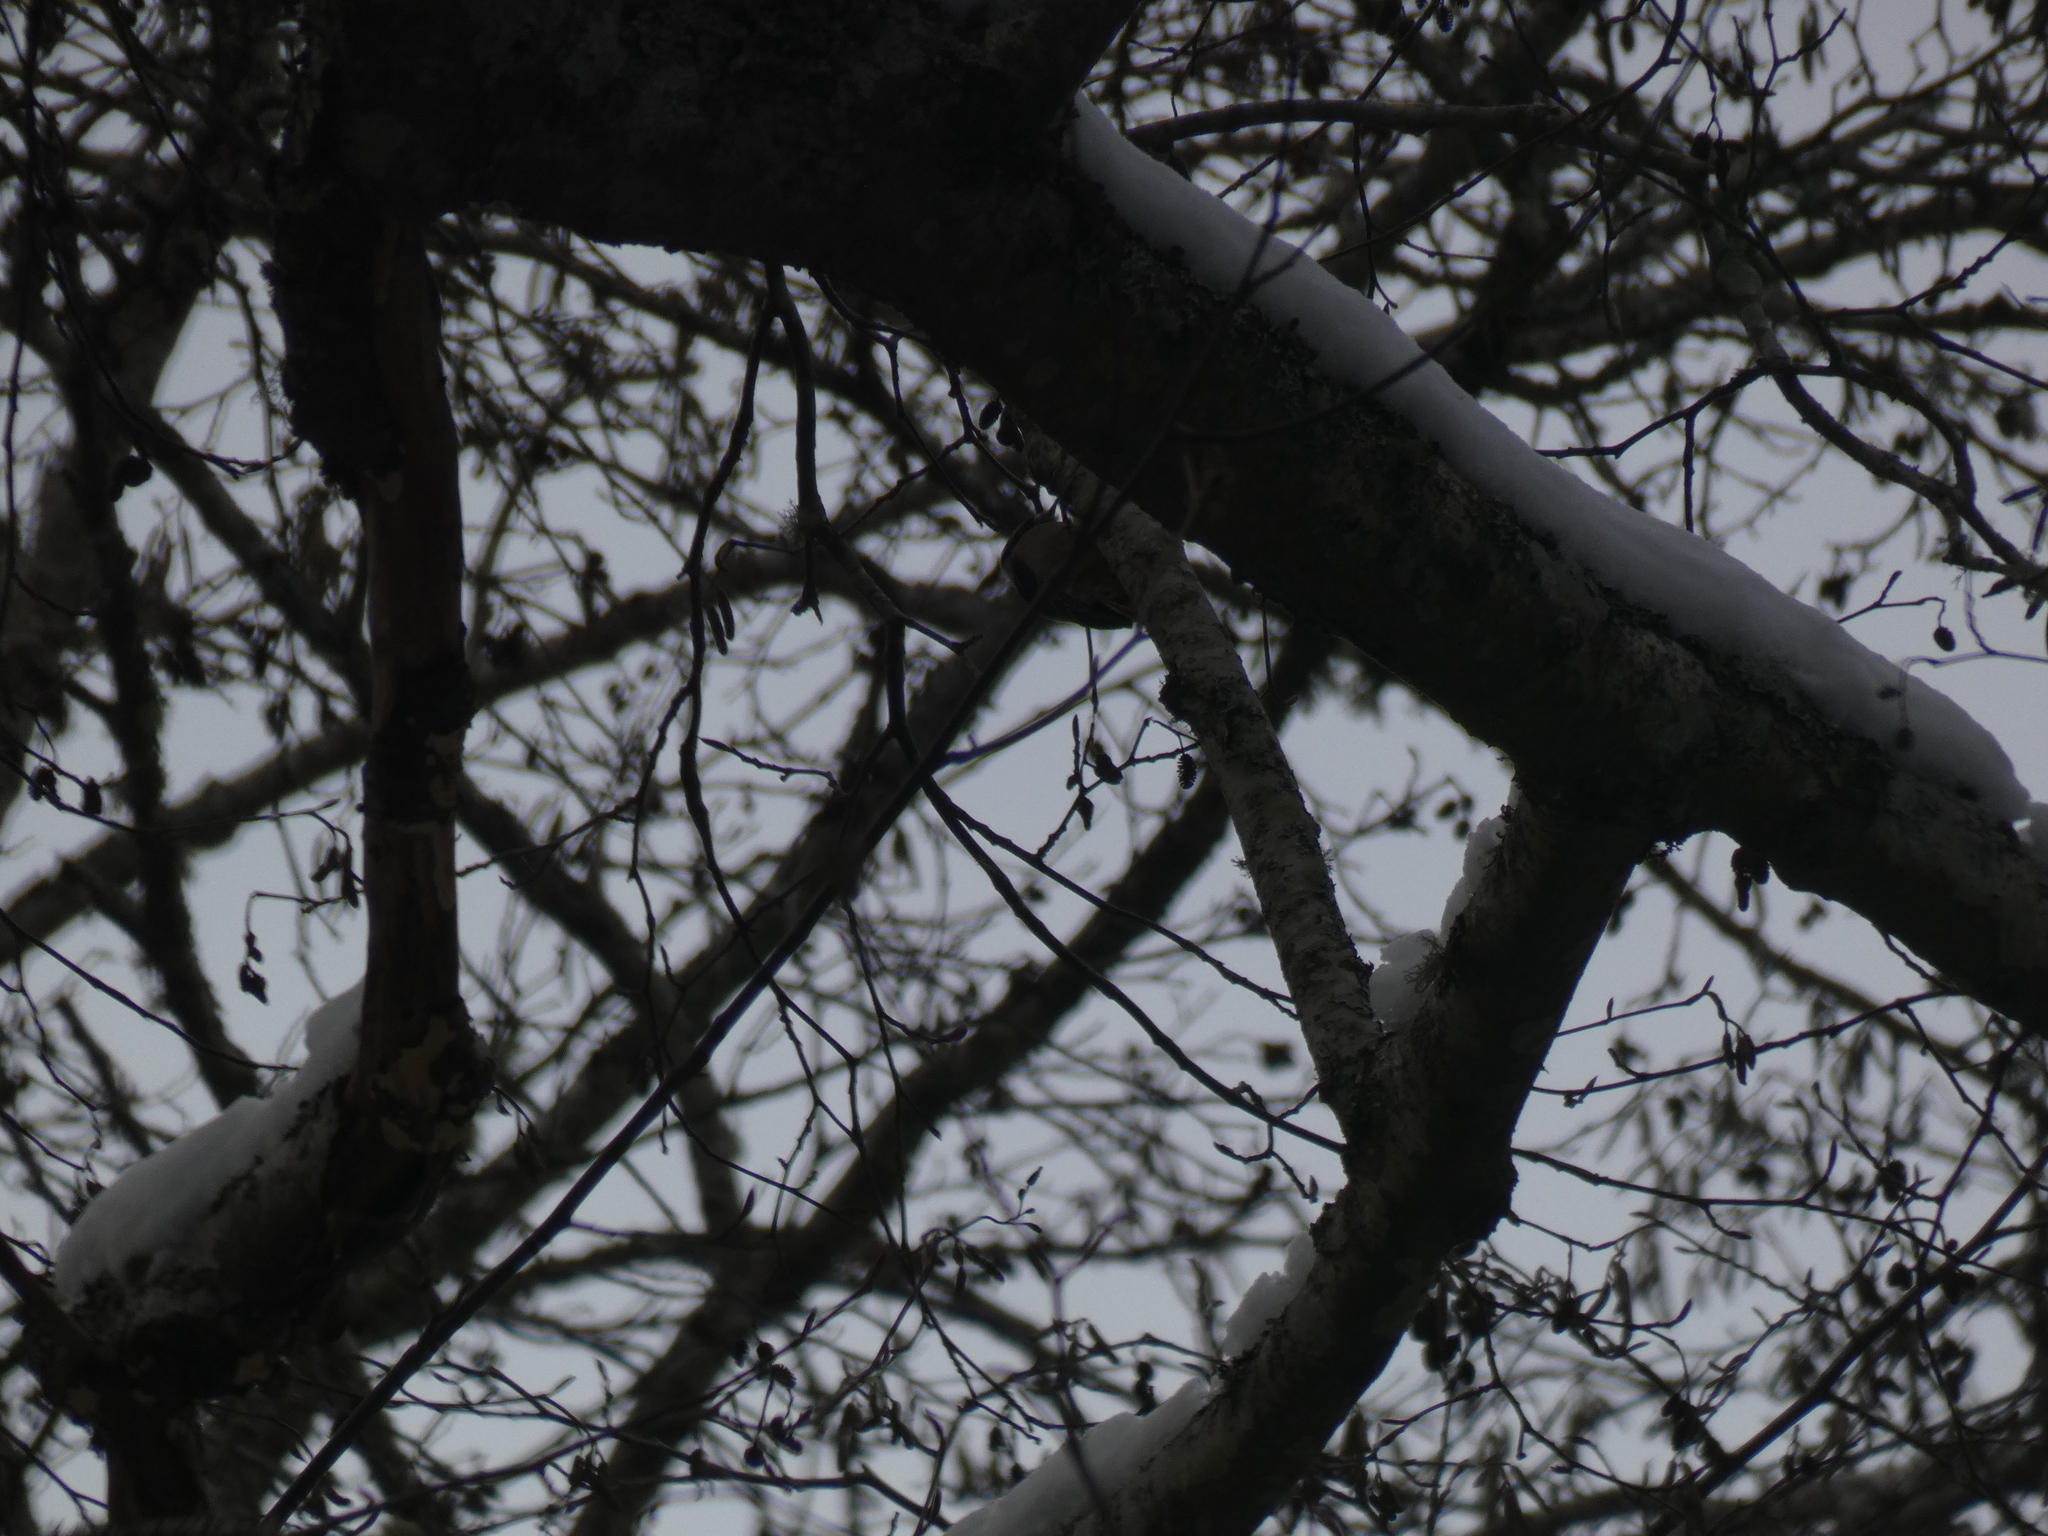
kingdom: Animalia
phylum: Chordata
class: Aves
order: Piciformes
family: Picidae
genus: Dryobates
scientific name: Dryobates pubescens
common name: Downy woodpecker
